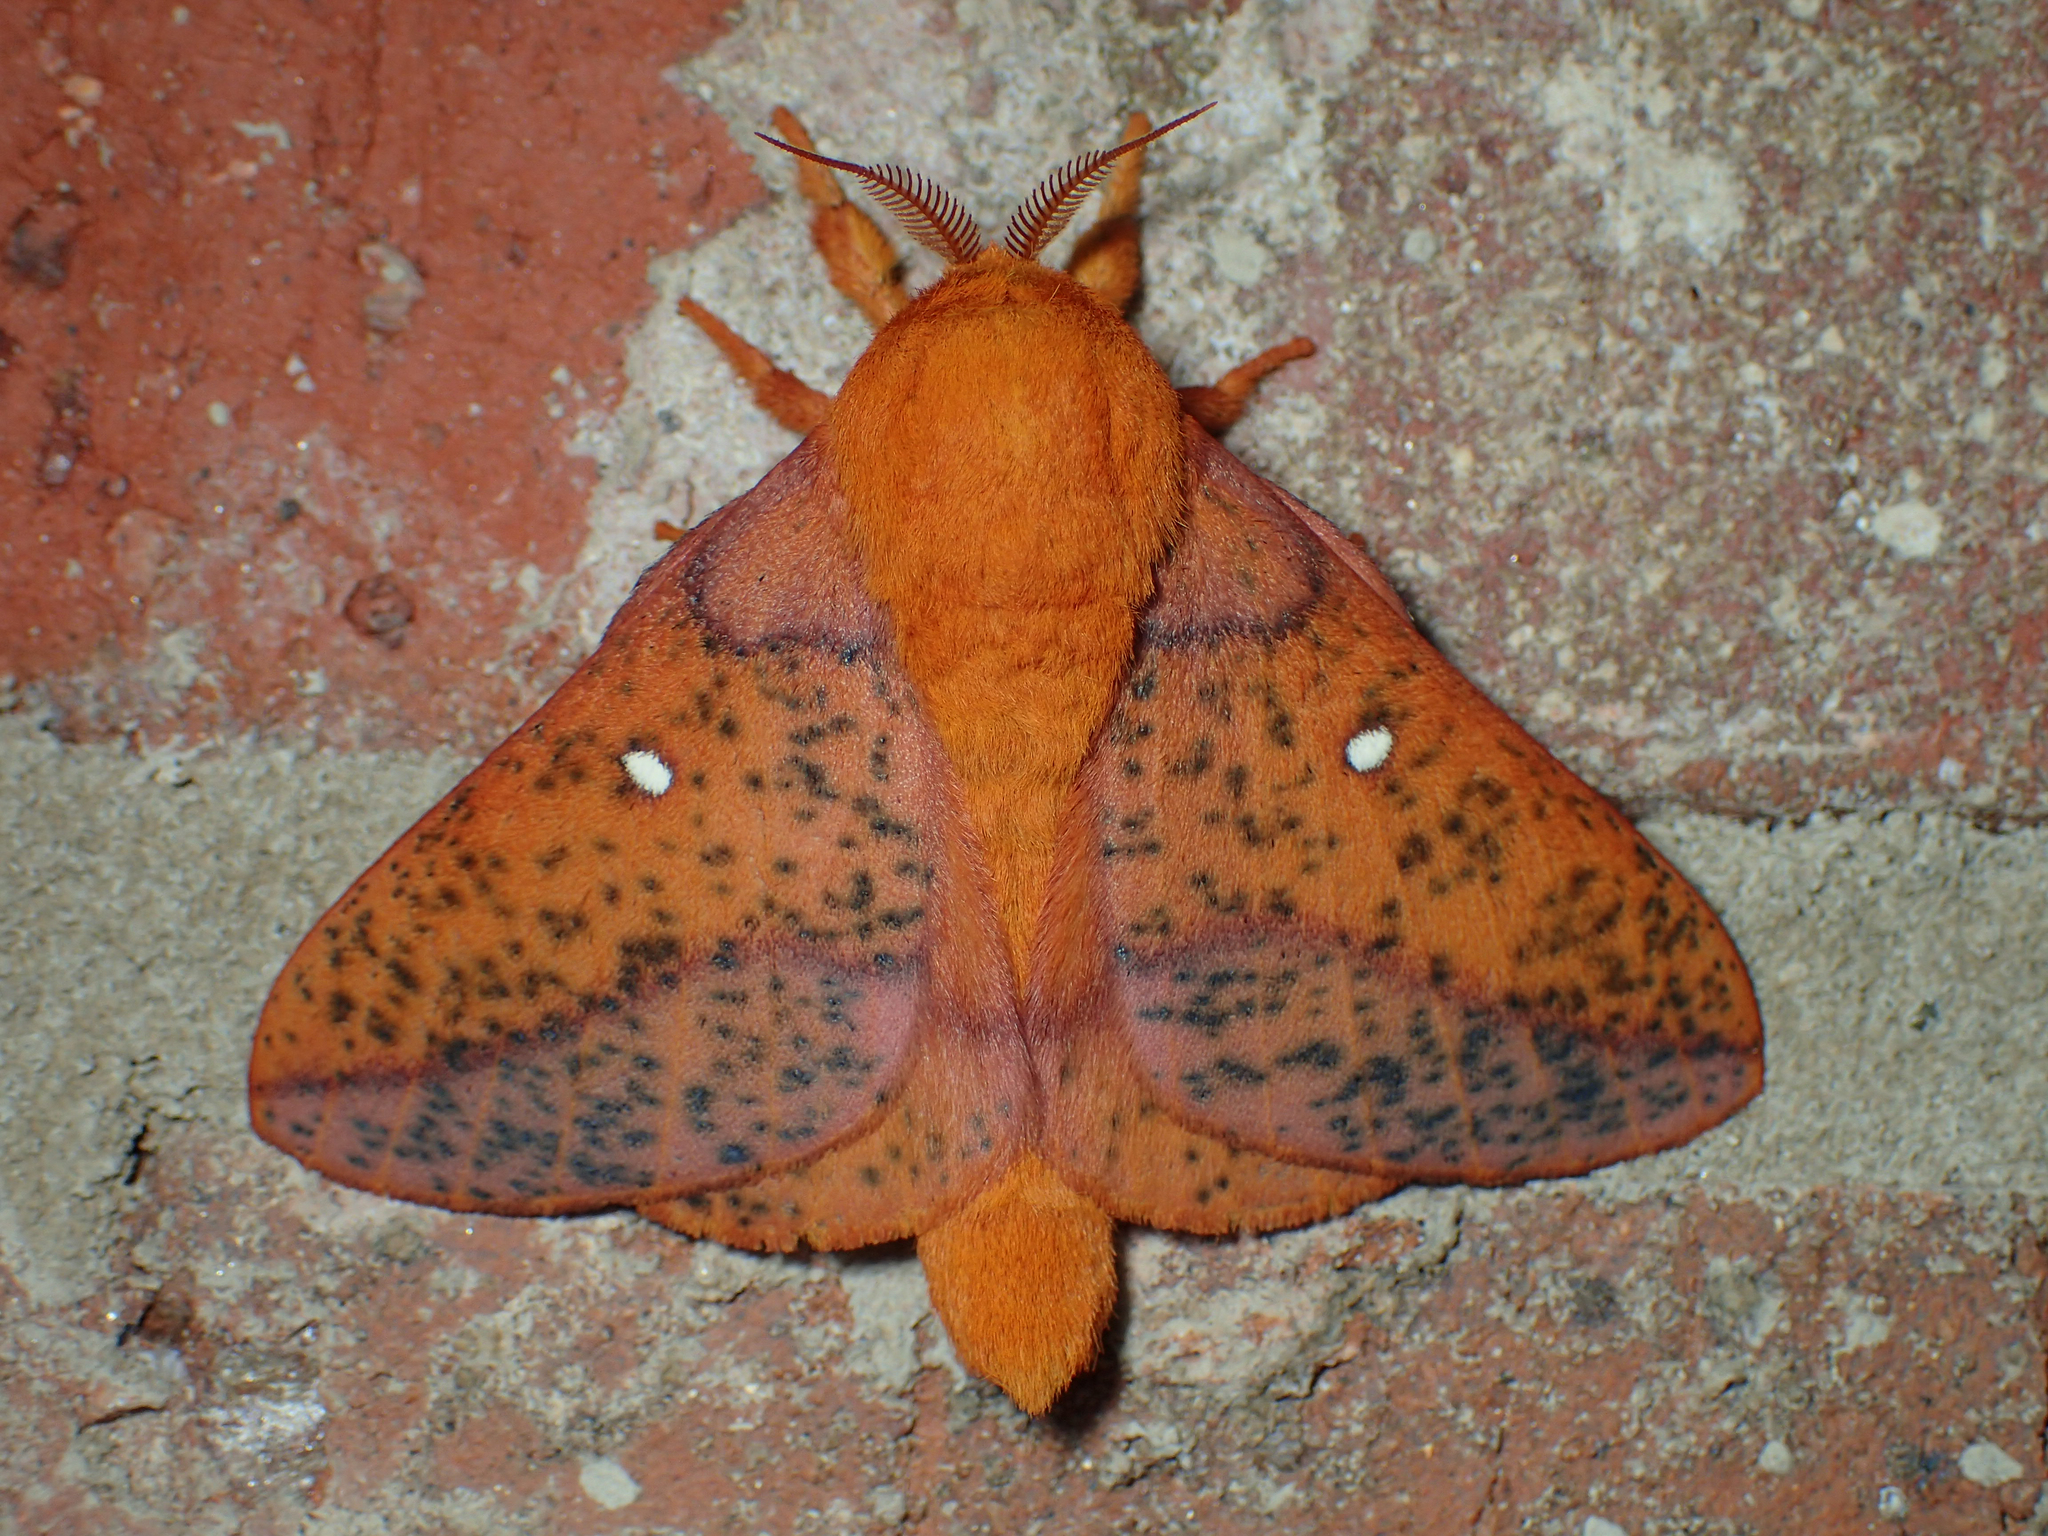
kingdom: Animalia
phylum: Arthropoda
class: Insecta
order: Lepidoptera
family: Saturniidae
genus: Anisota
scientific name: Anisota stigma
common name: Spiny oakworm moth
